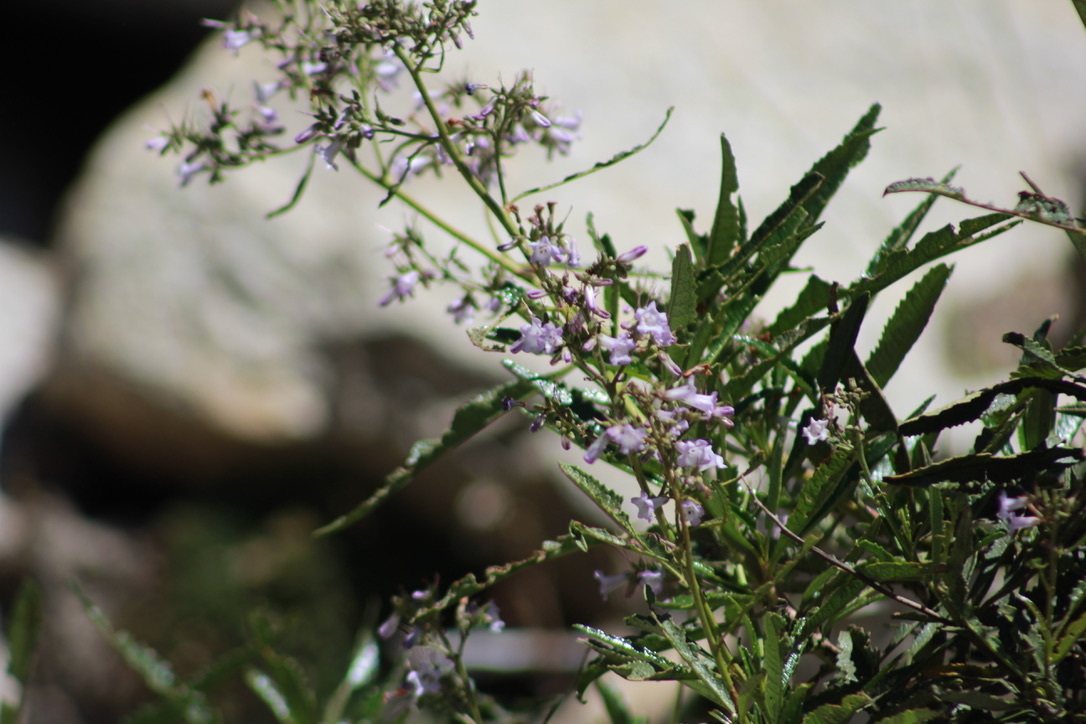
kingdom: Plantae
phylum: Tracheophyta
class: Magnoliopsida
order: Boraginales
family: Namaceae
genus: Eriodictyon
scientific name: Eriodictyon californicum
